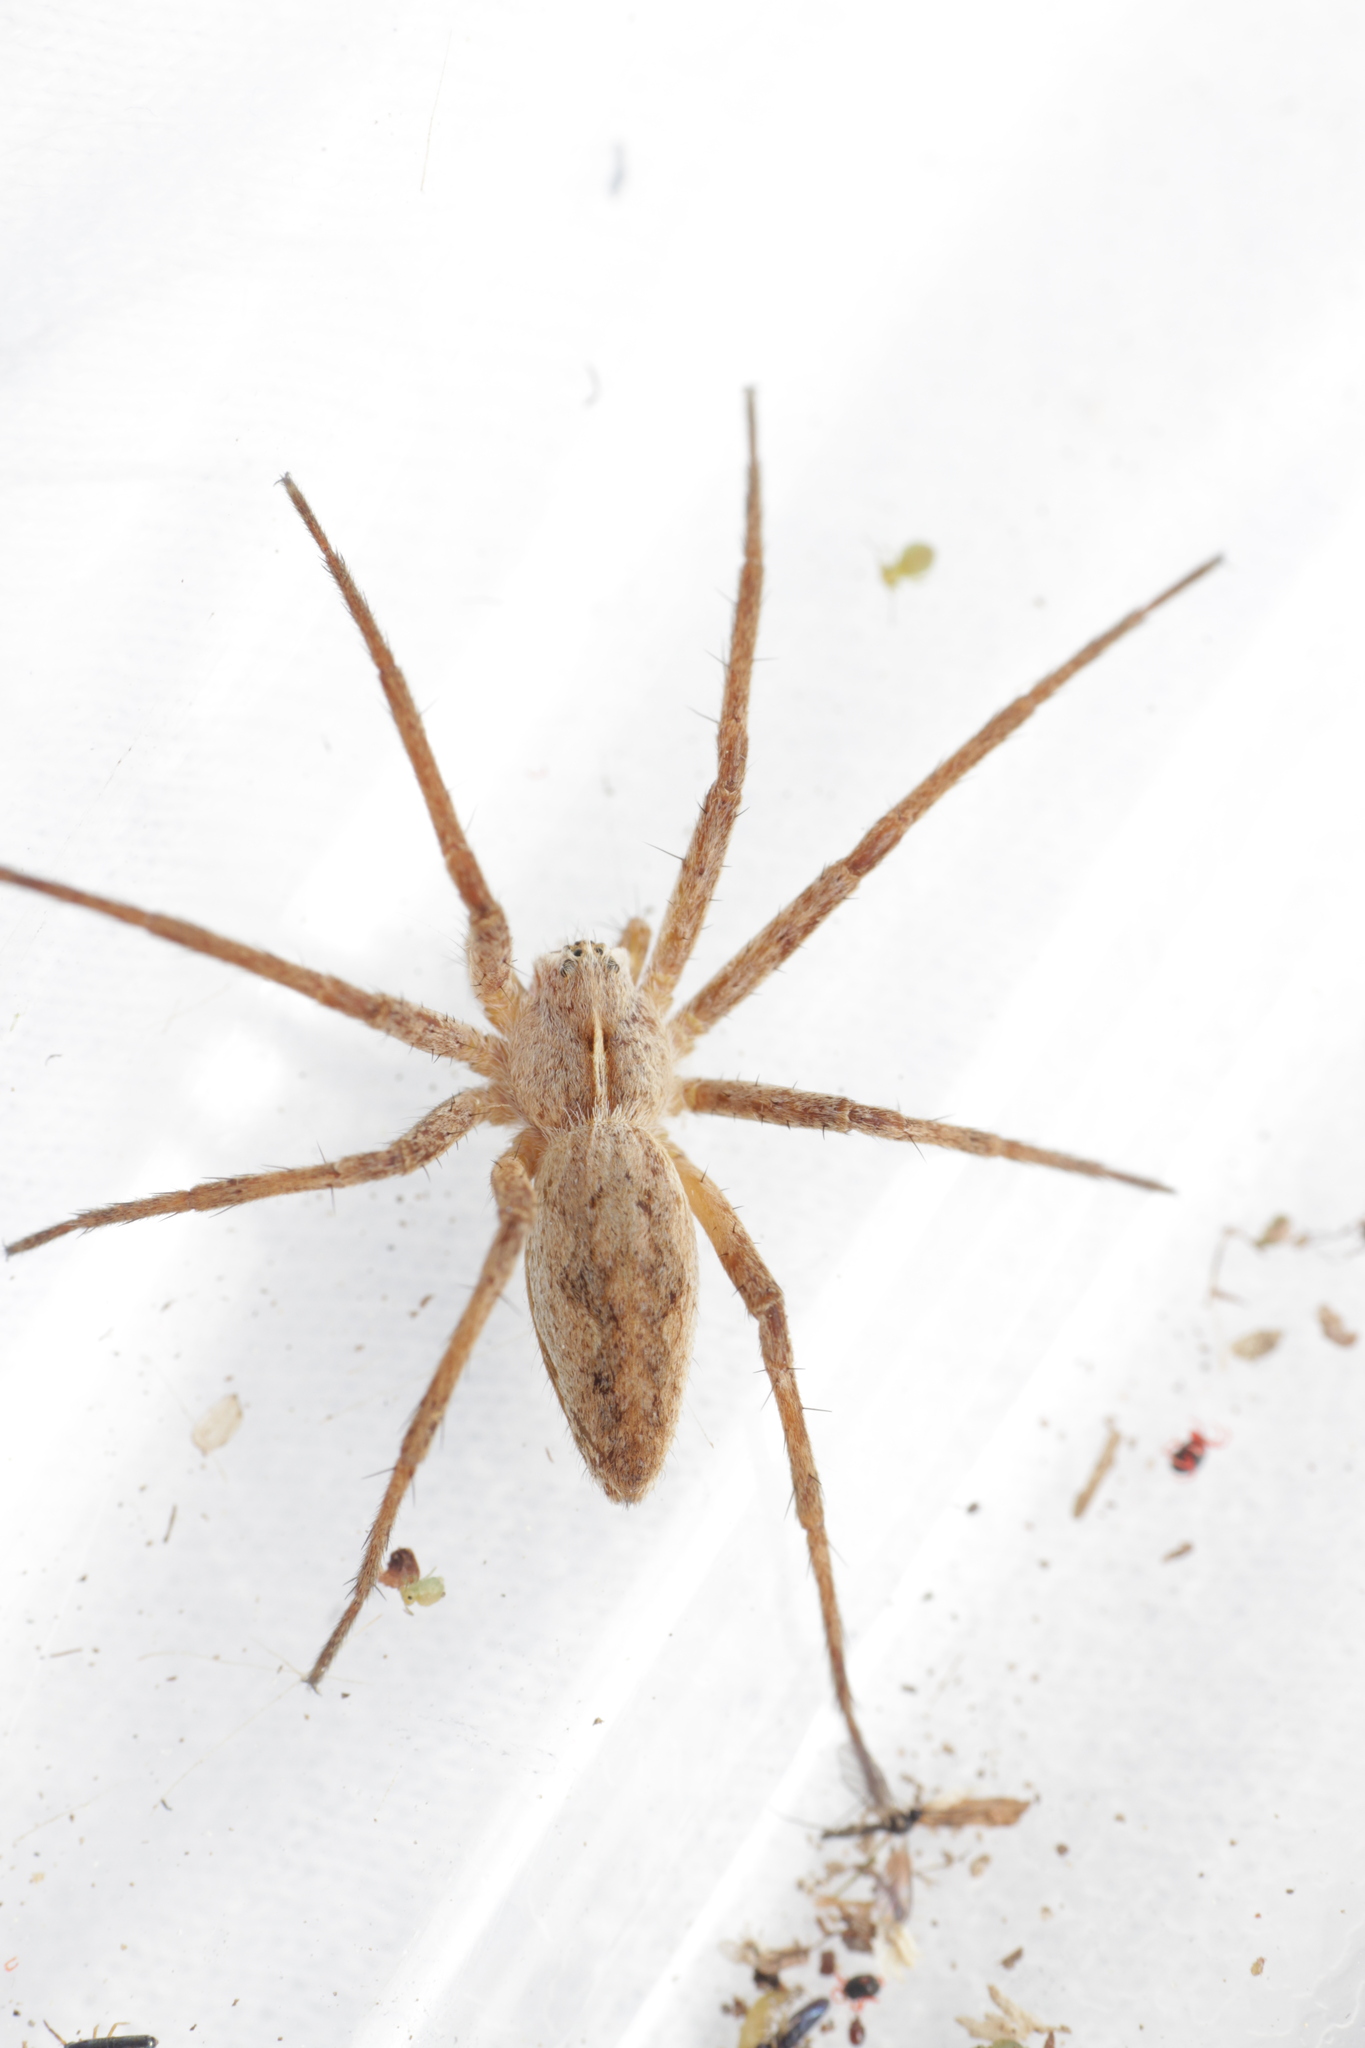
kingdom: Animalia
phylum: Arthropoda
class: Arachnida
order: Araneae
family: Pisauridae
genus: Pisaura
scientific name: Pisaura mirabilis
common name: Tent spider
